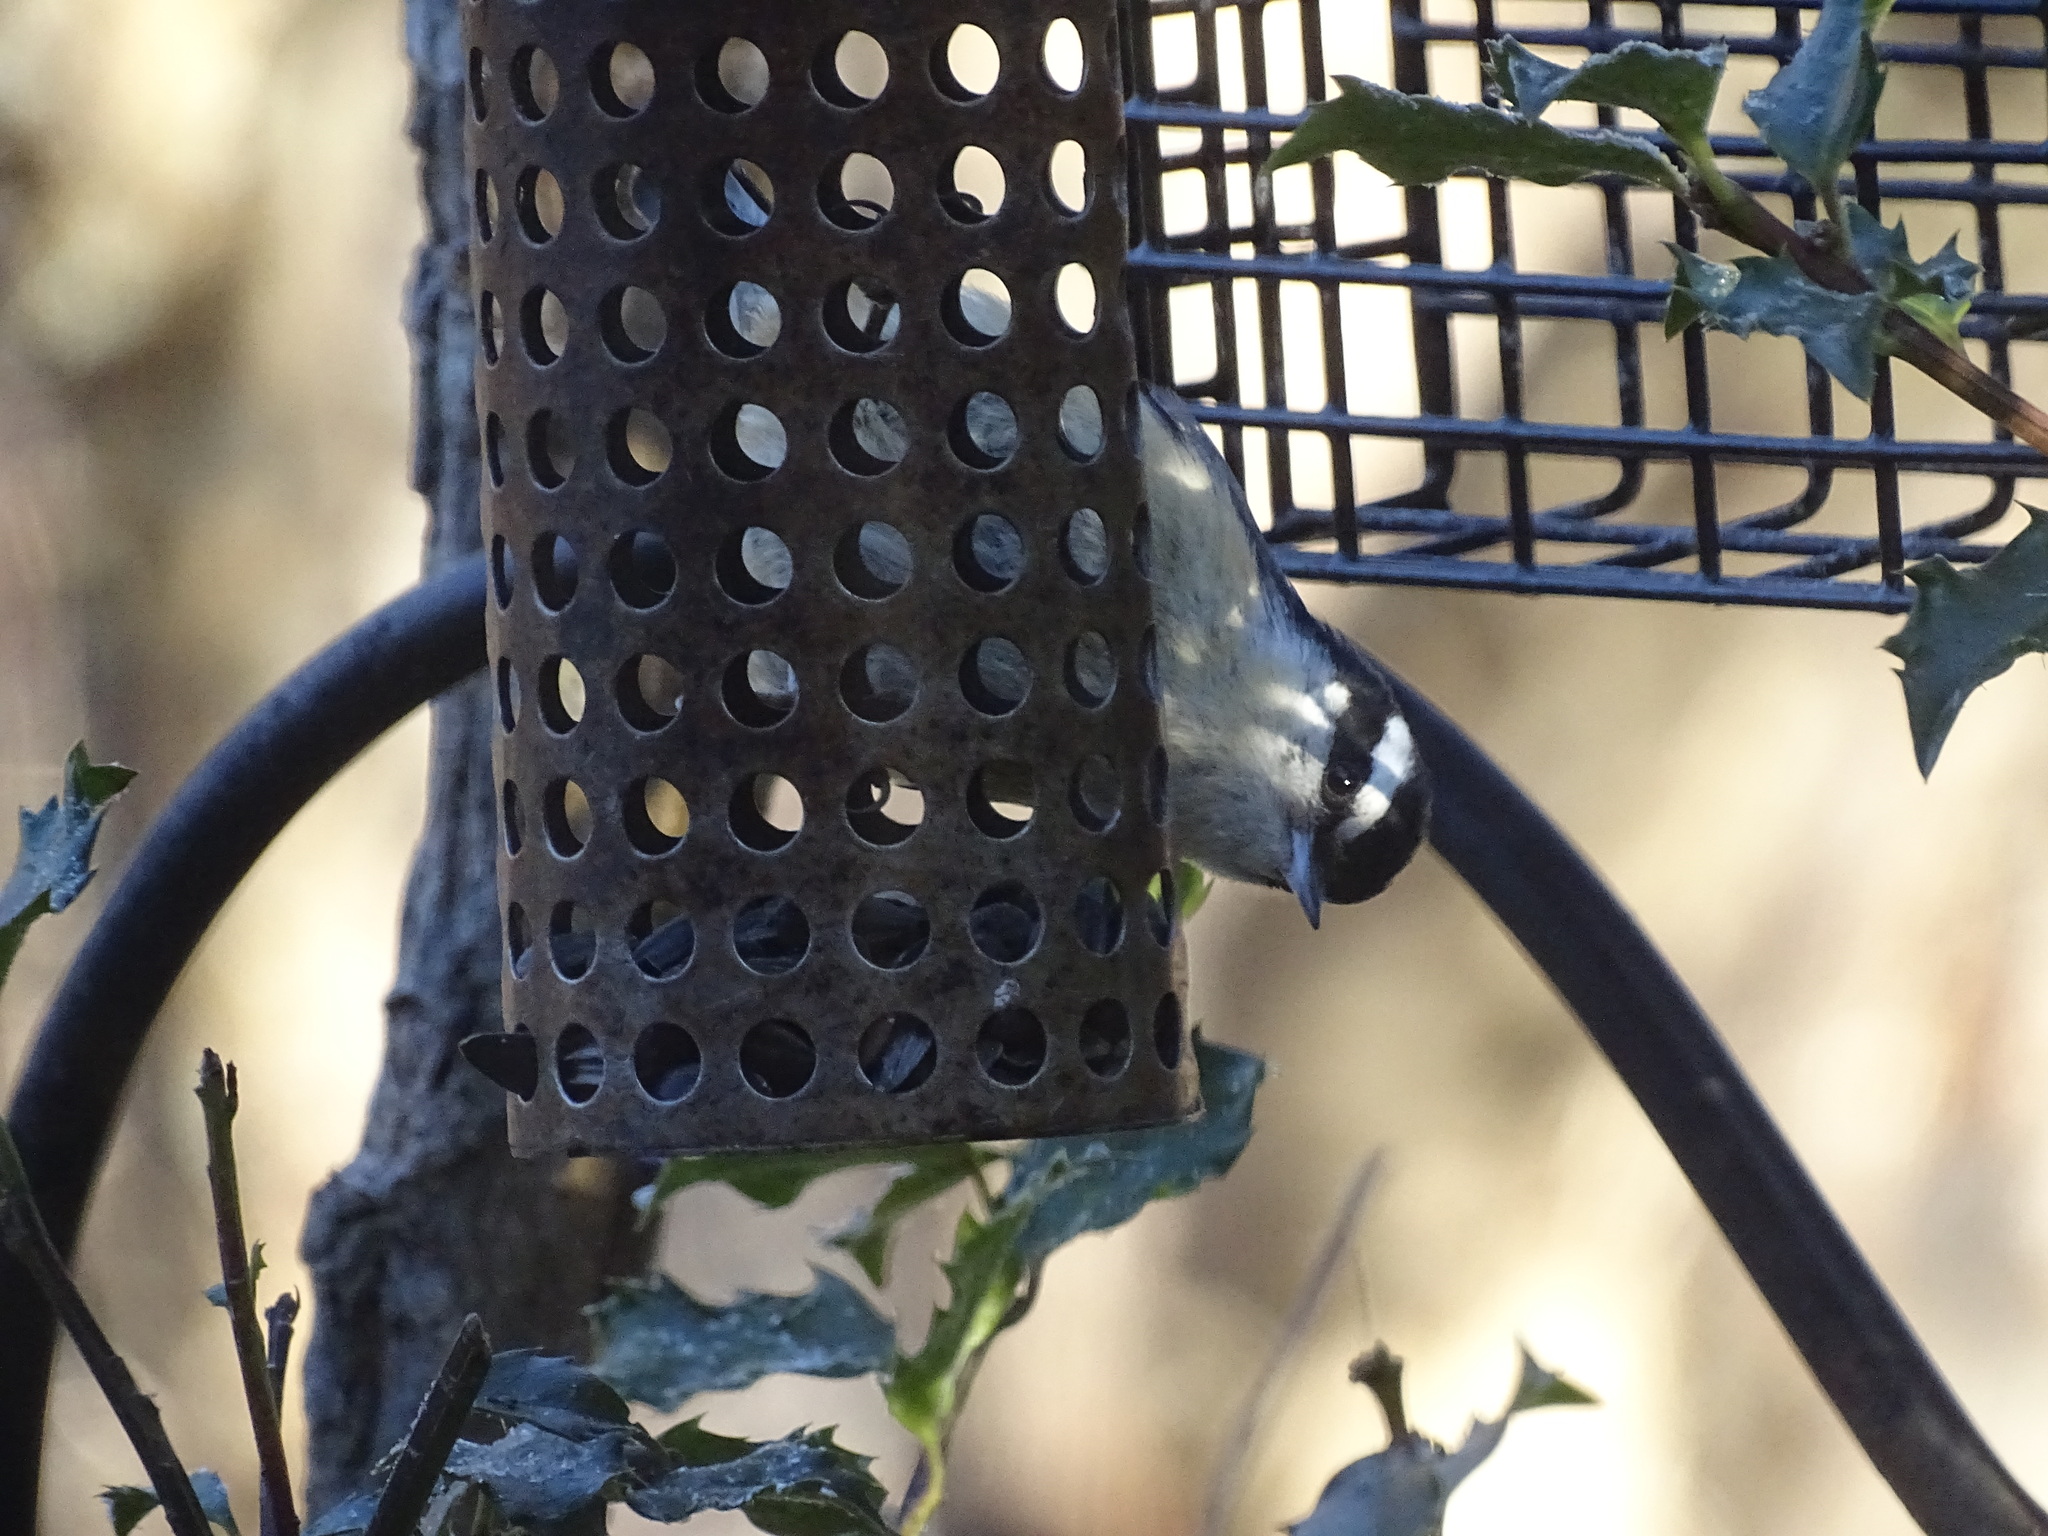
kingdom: Animalia
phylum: Chordata
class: Aves
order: Passeriformes
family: Sittidae
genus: Sitta
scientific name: Sitta canadensis
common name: Red-breasted nuthatch
